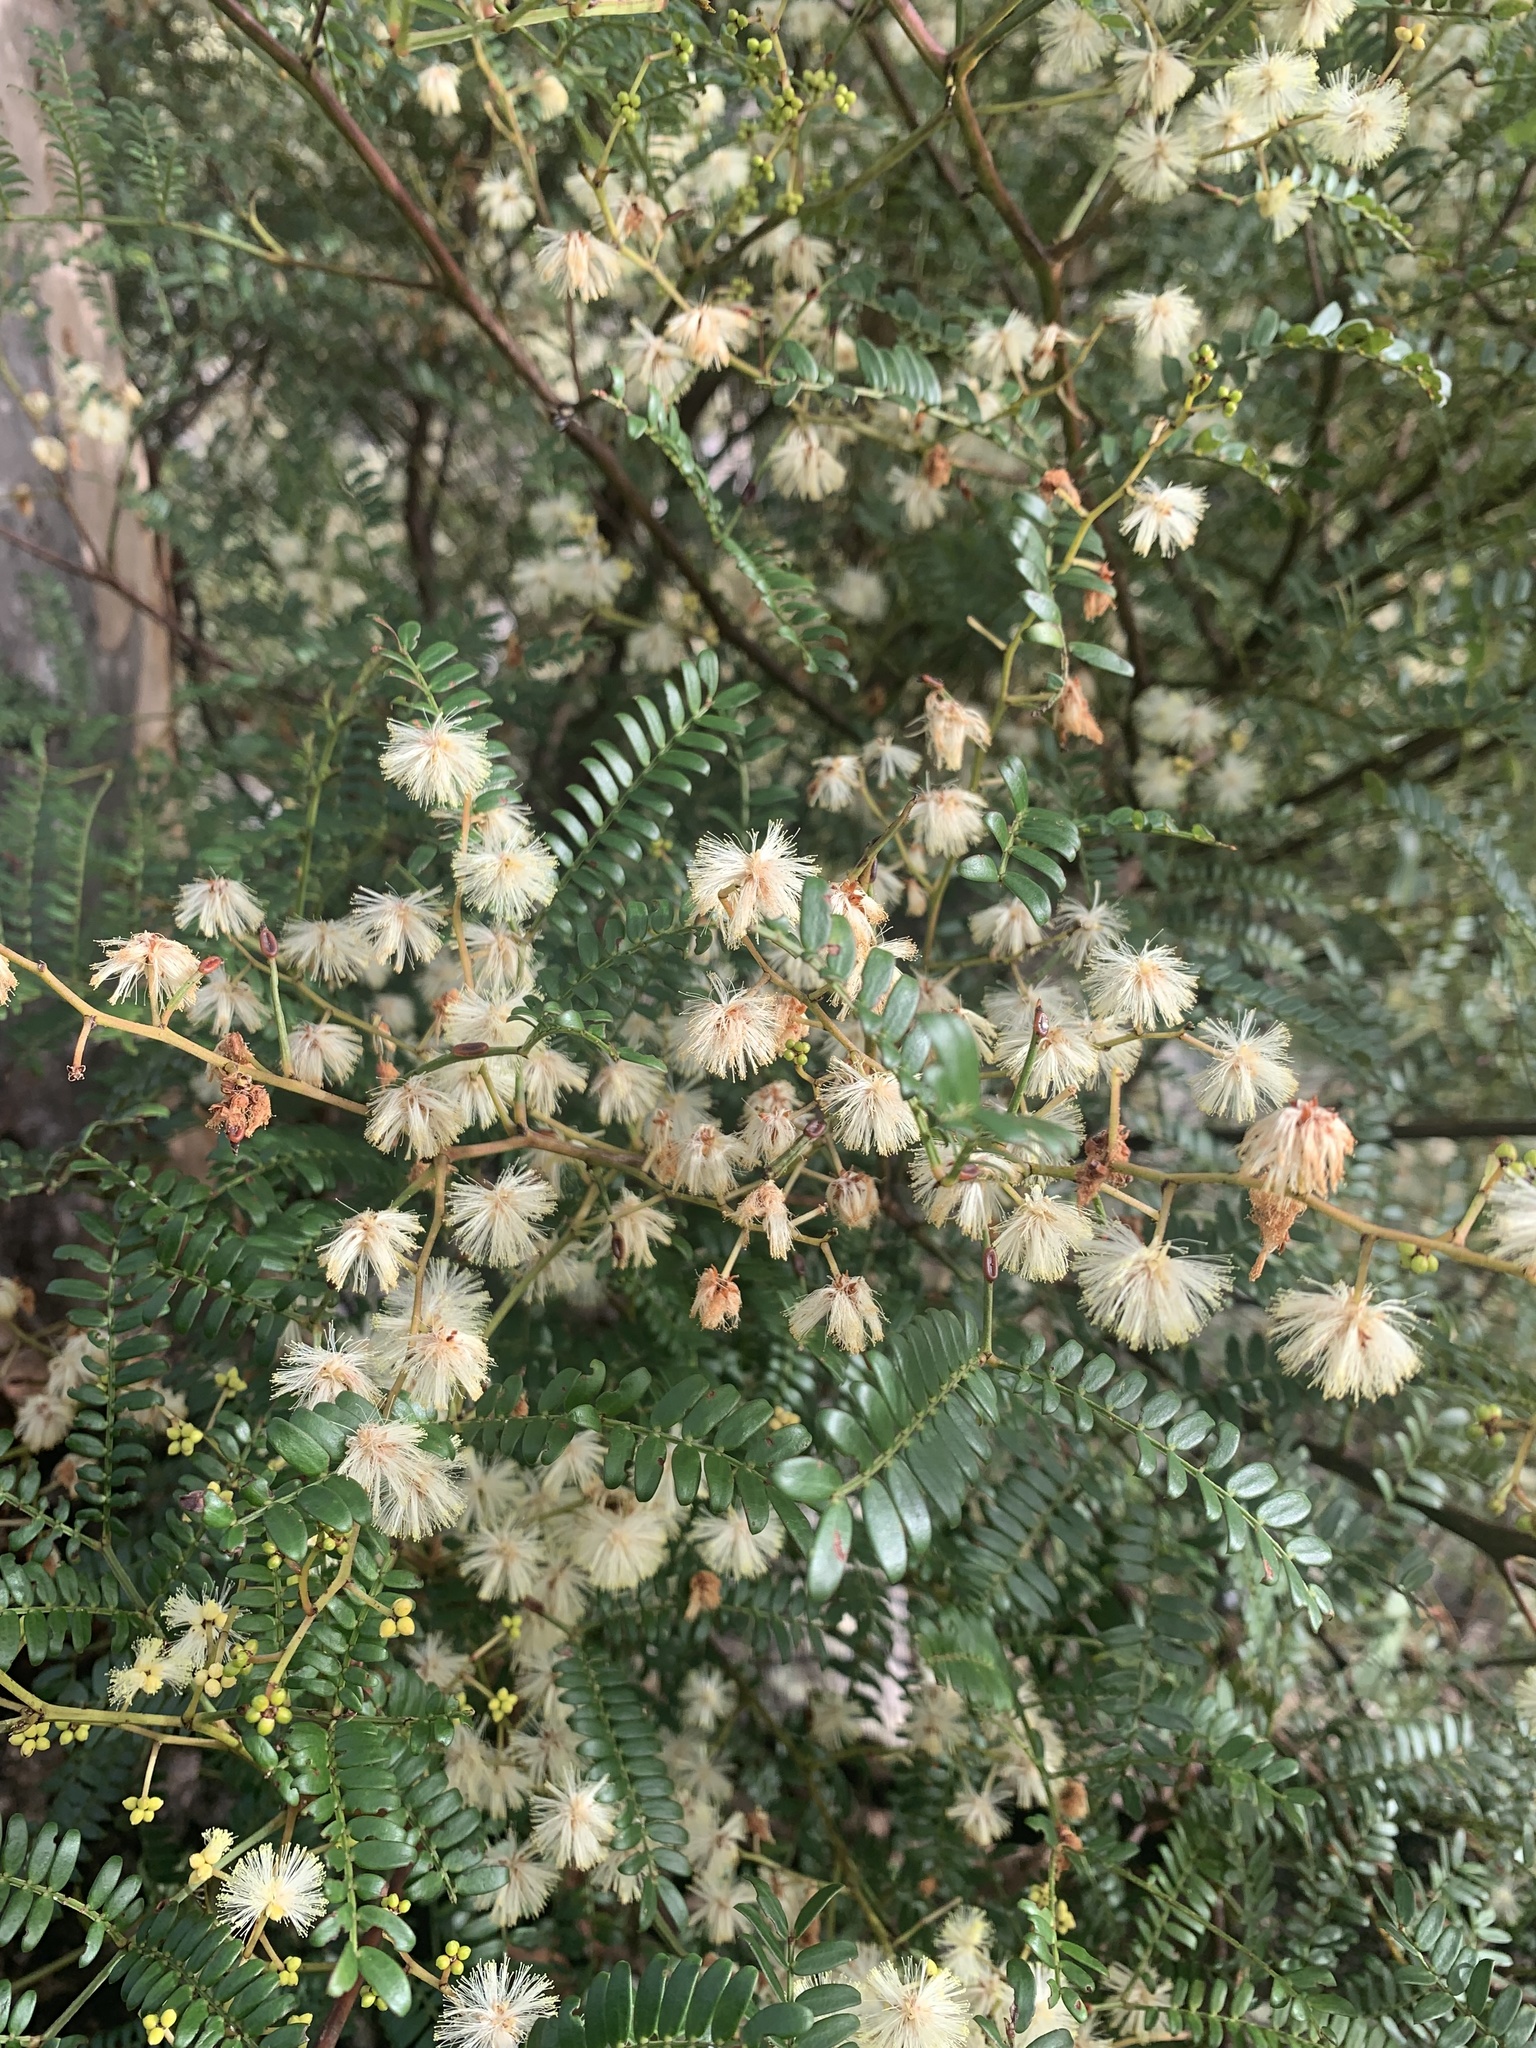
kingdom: Plantae
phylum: Tracheophyta
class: Magnoliopsida
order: Fabales
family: Fabaceae
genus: Acacia
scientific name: Acacia terminalis
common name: Cedar wattle
